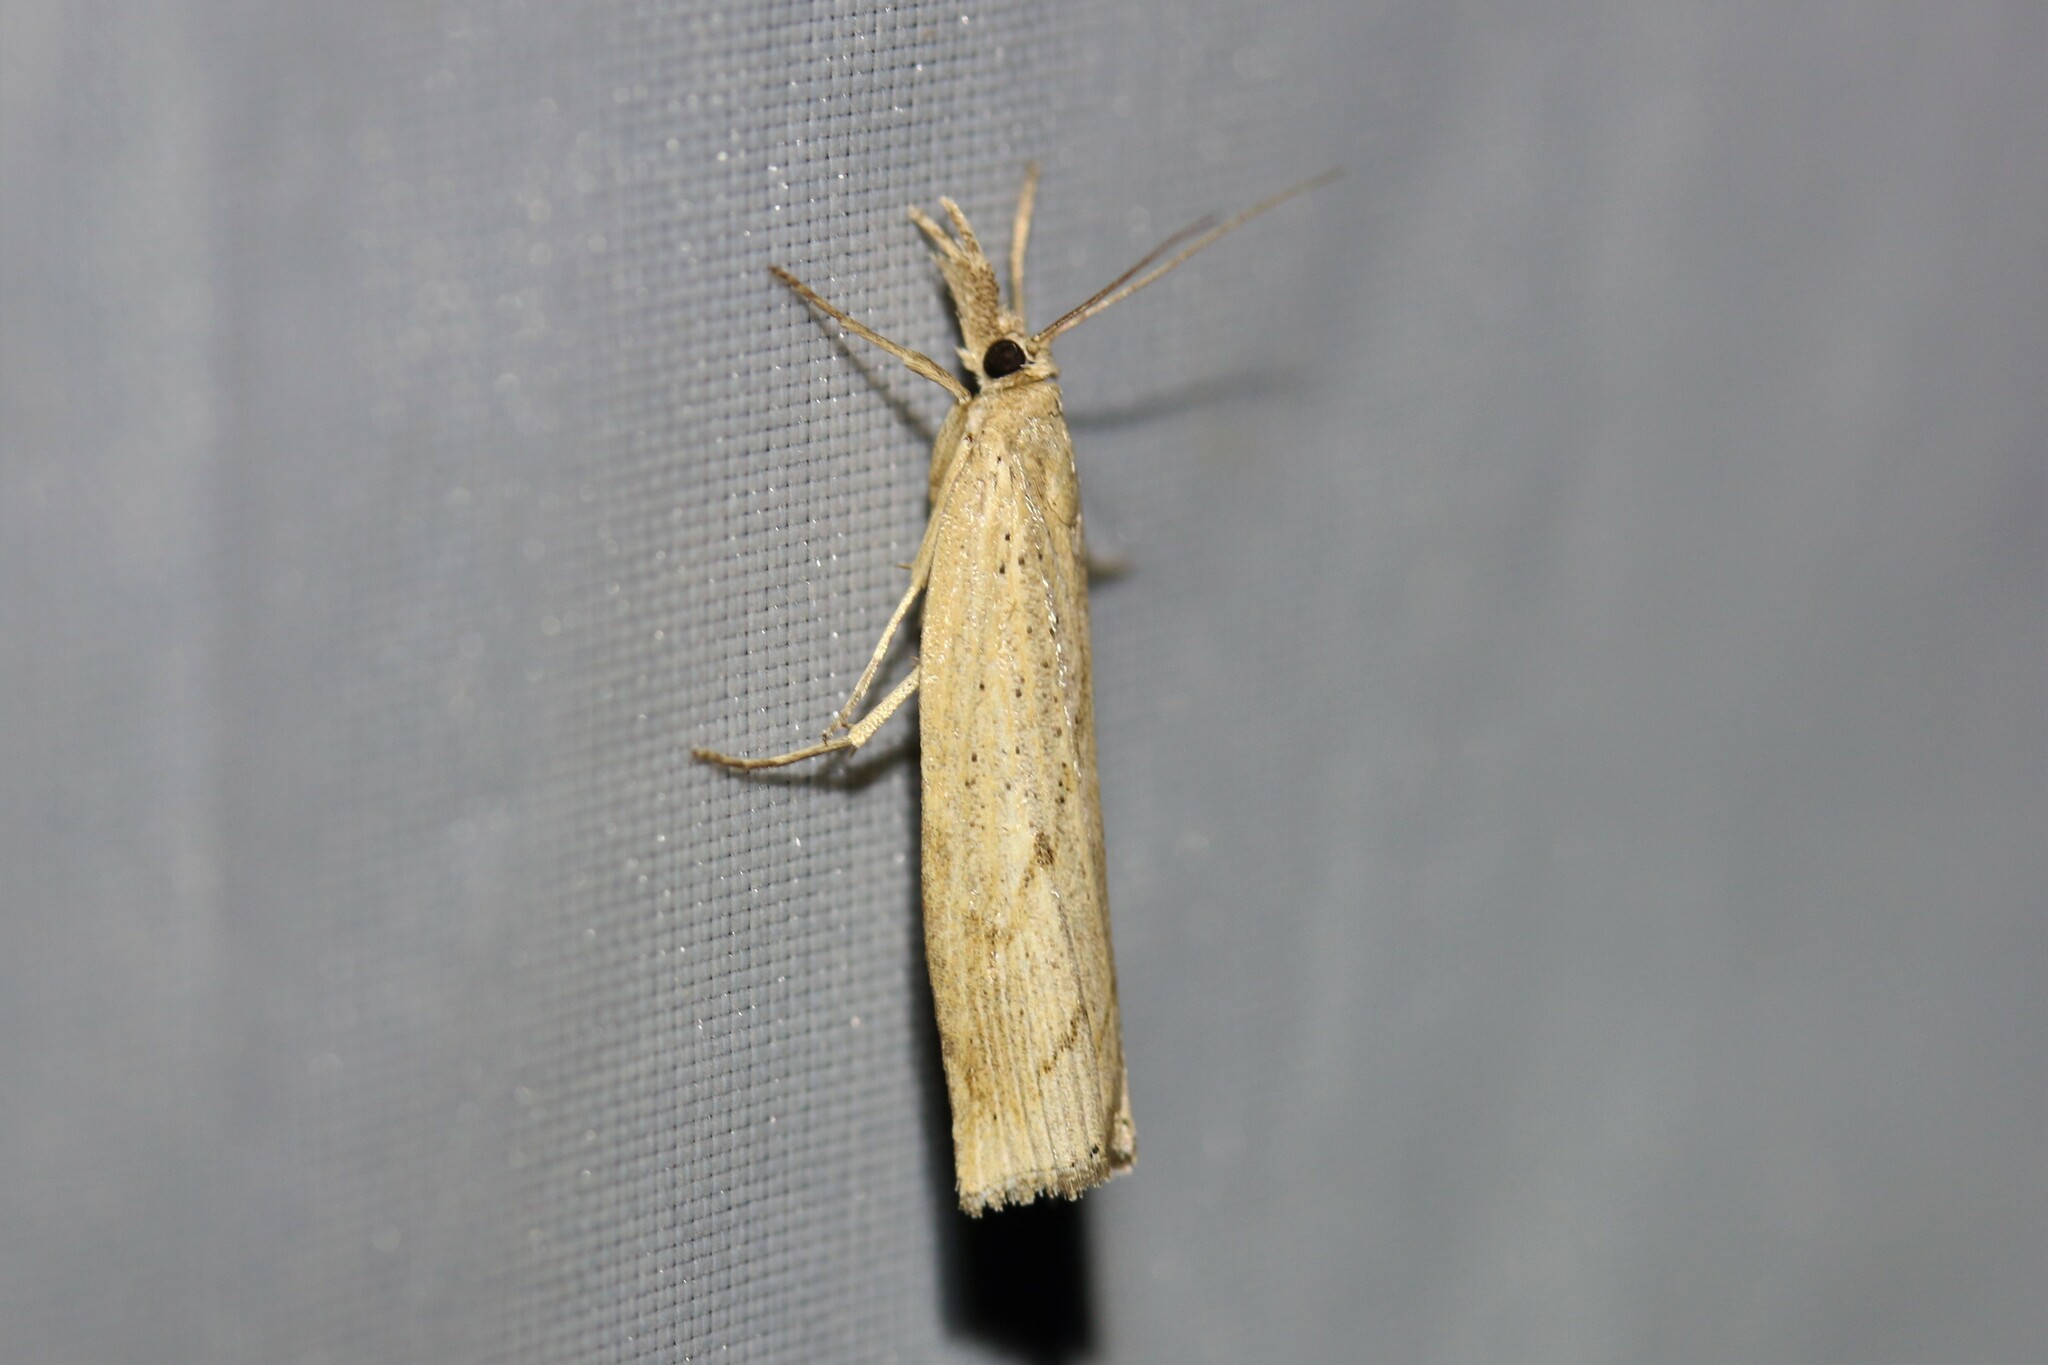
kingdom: Animalia
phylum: Arthropoda
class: Insecta
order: Lepidoptera
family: Crambidae
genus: Pediasia
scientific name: Pediasia contaminella
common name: Waste grass-veneer
